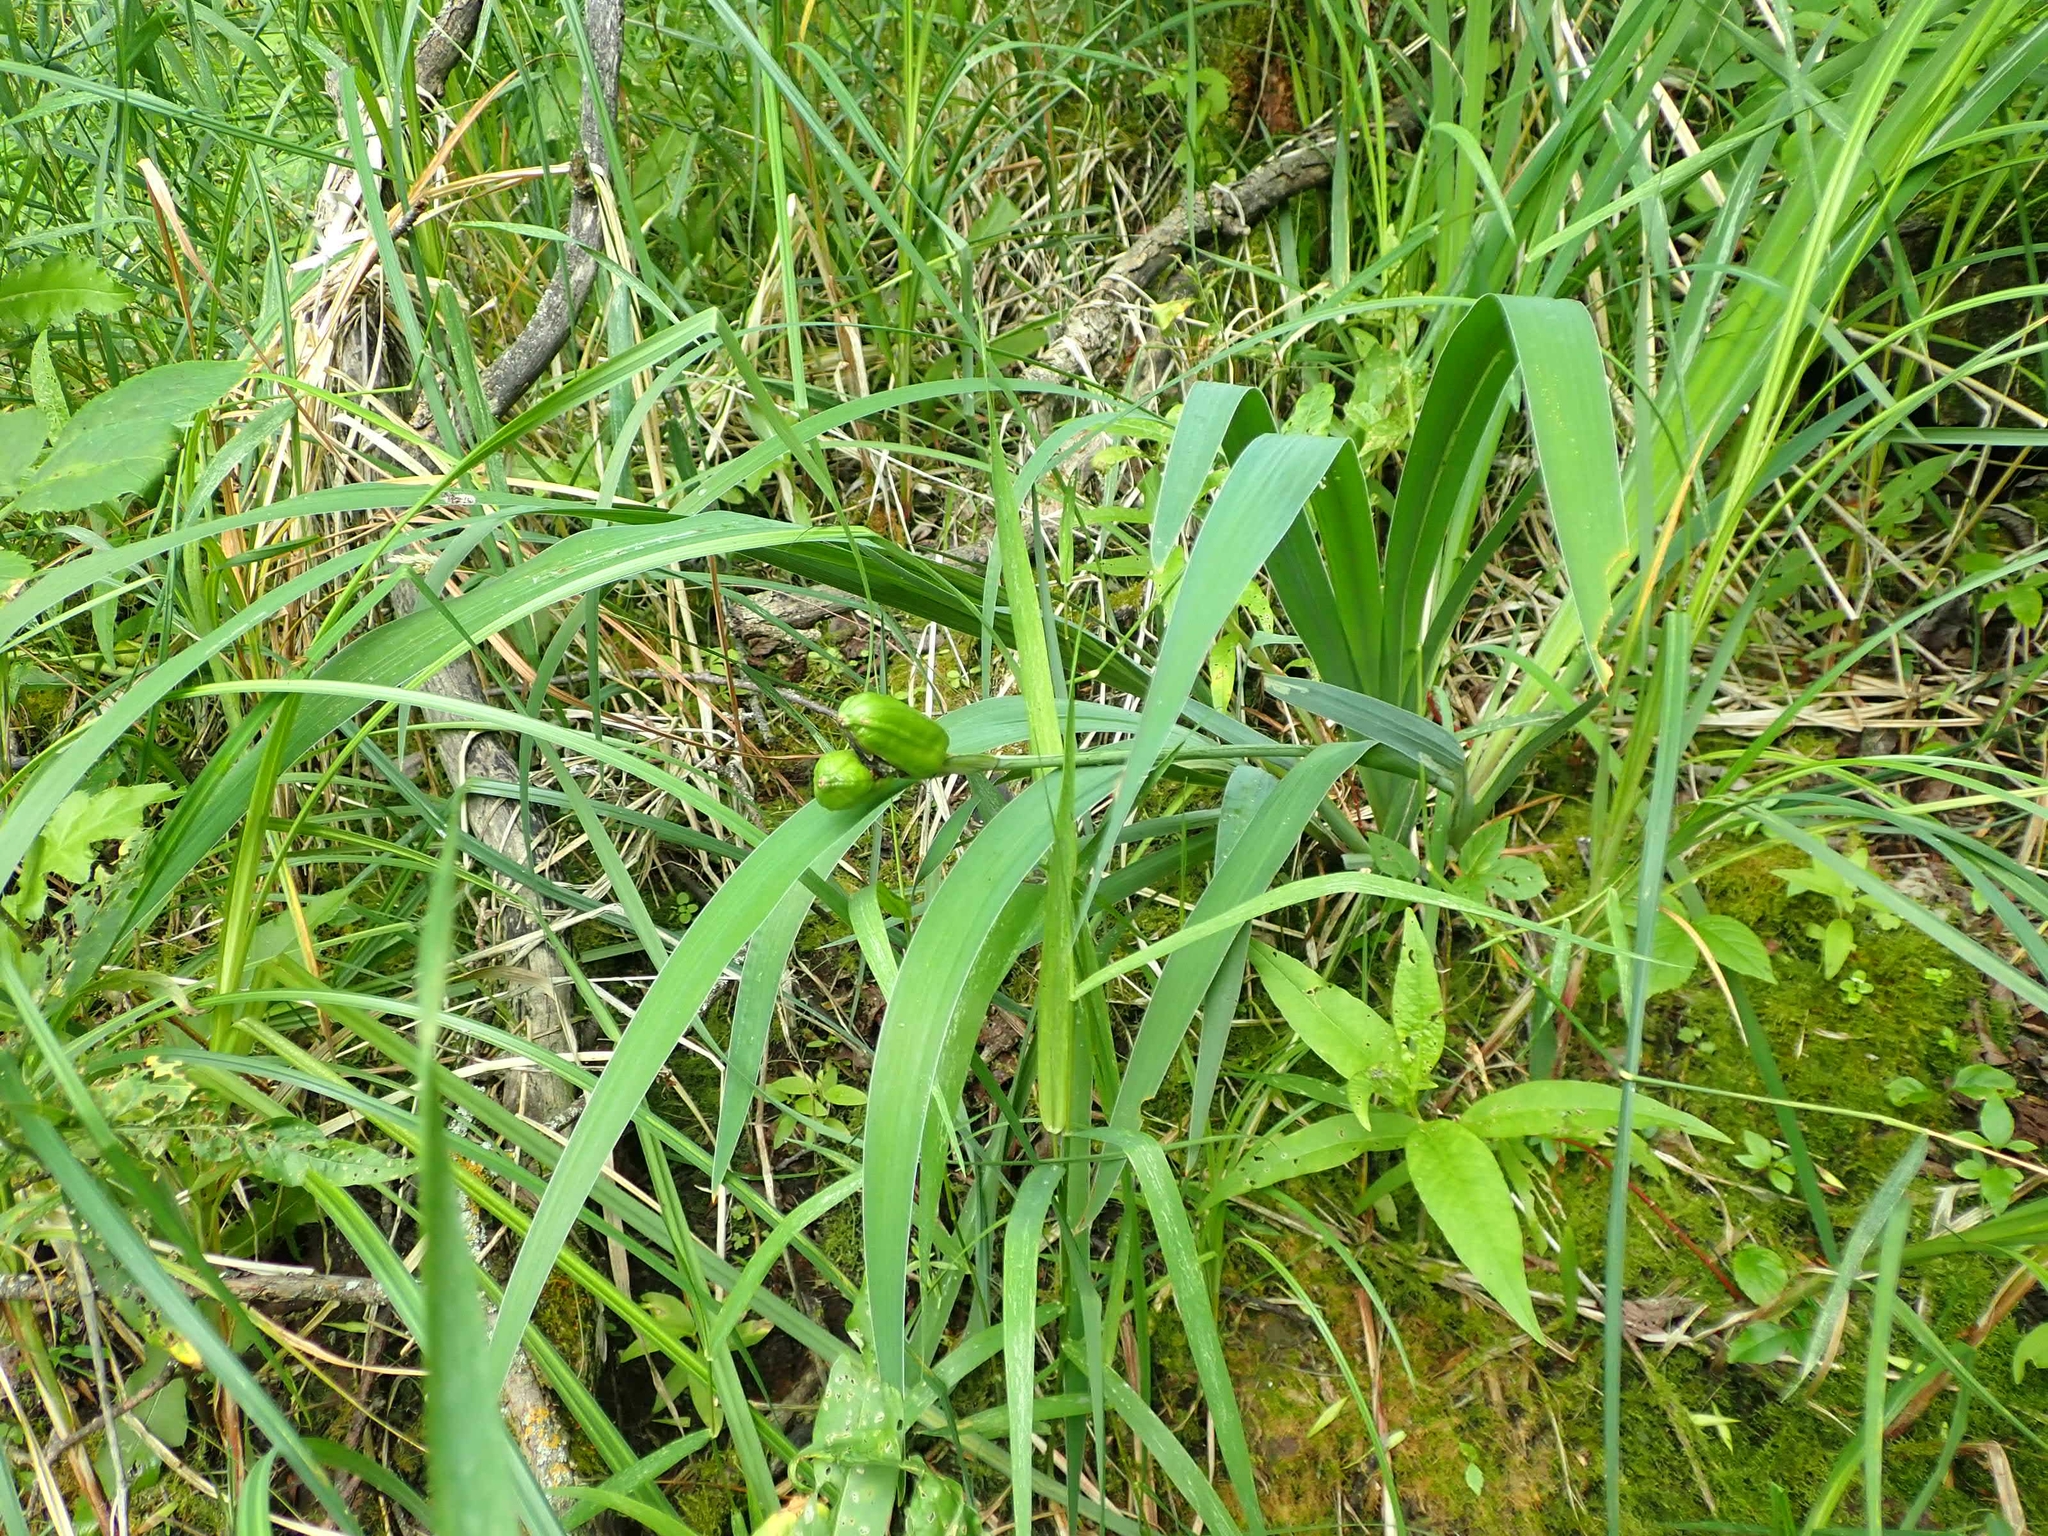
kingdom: Plantae
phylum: Tracheophyta
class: Liliopsida
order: Asparagales
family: Iridaceae
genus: Iris
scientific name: Iris versicolor
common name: Purple iris
